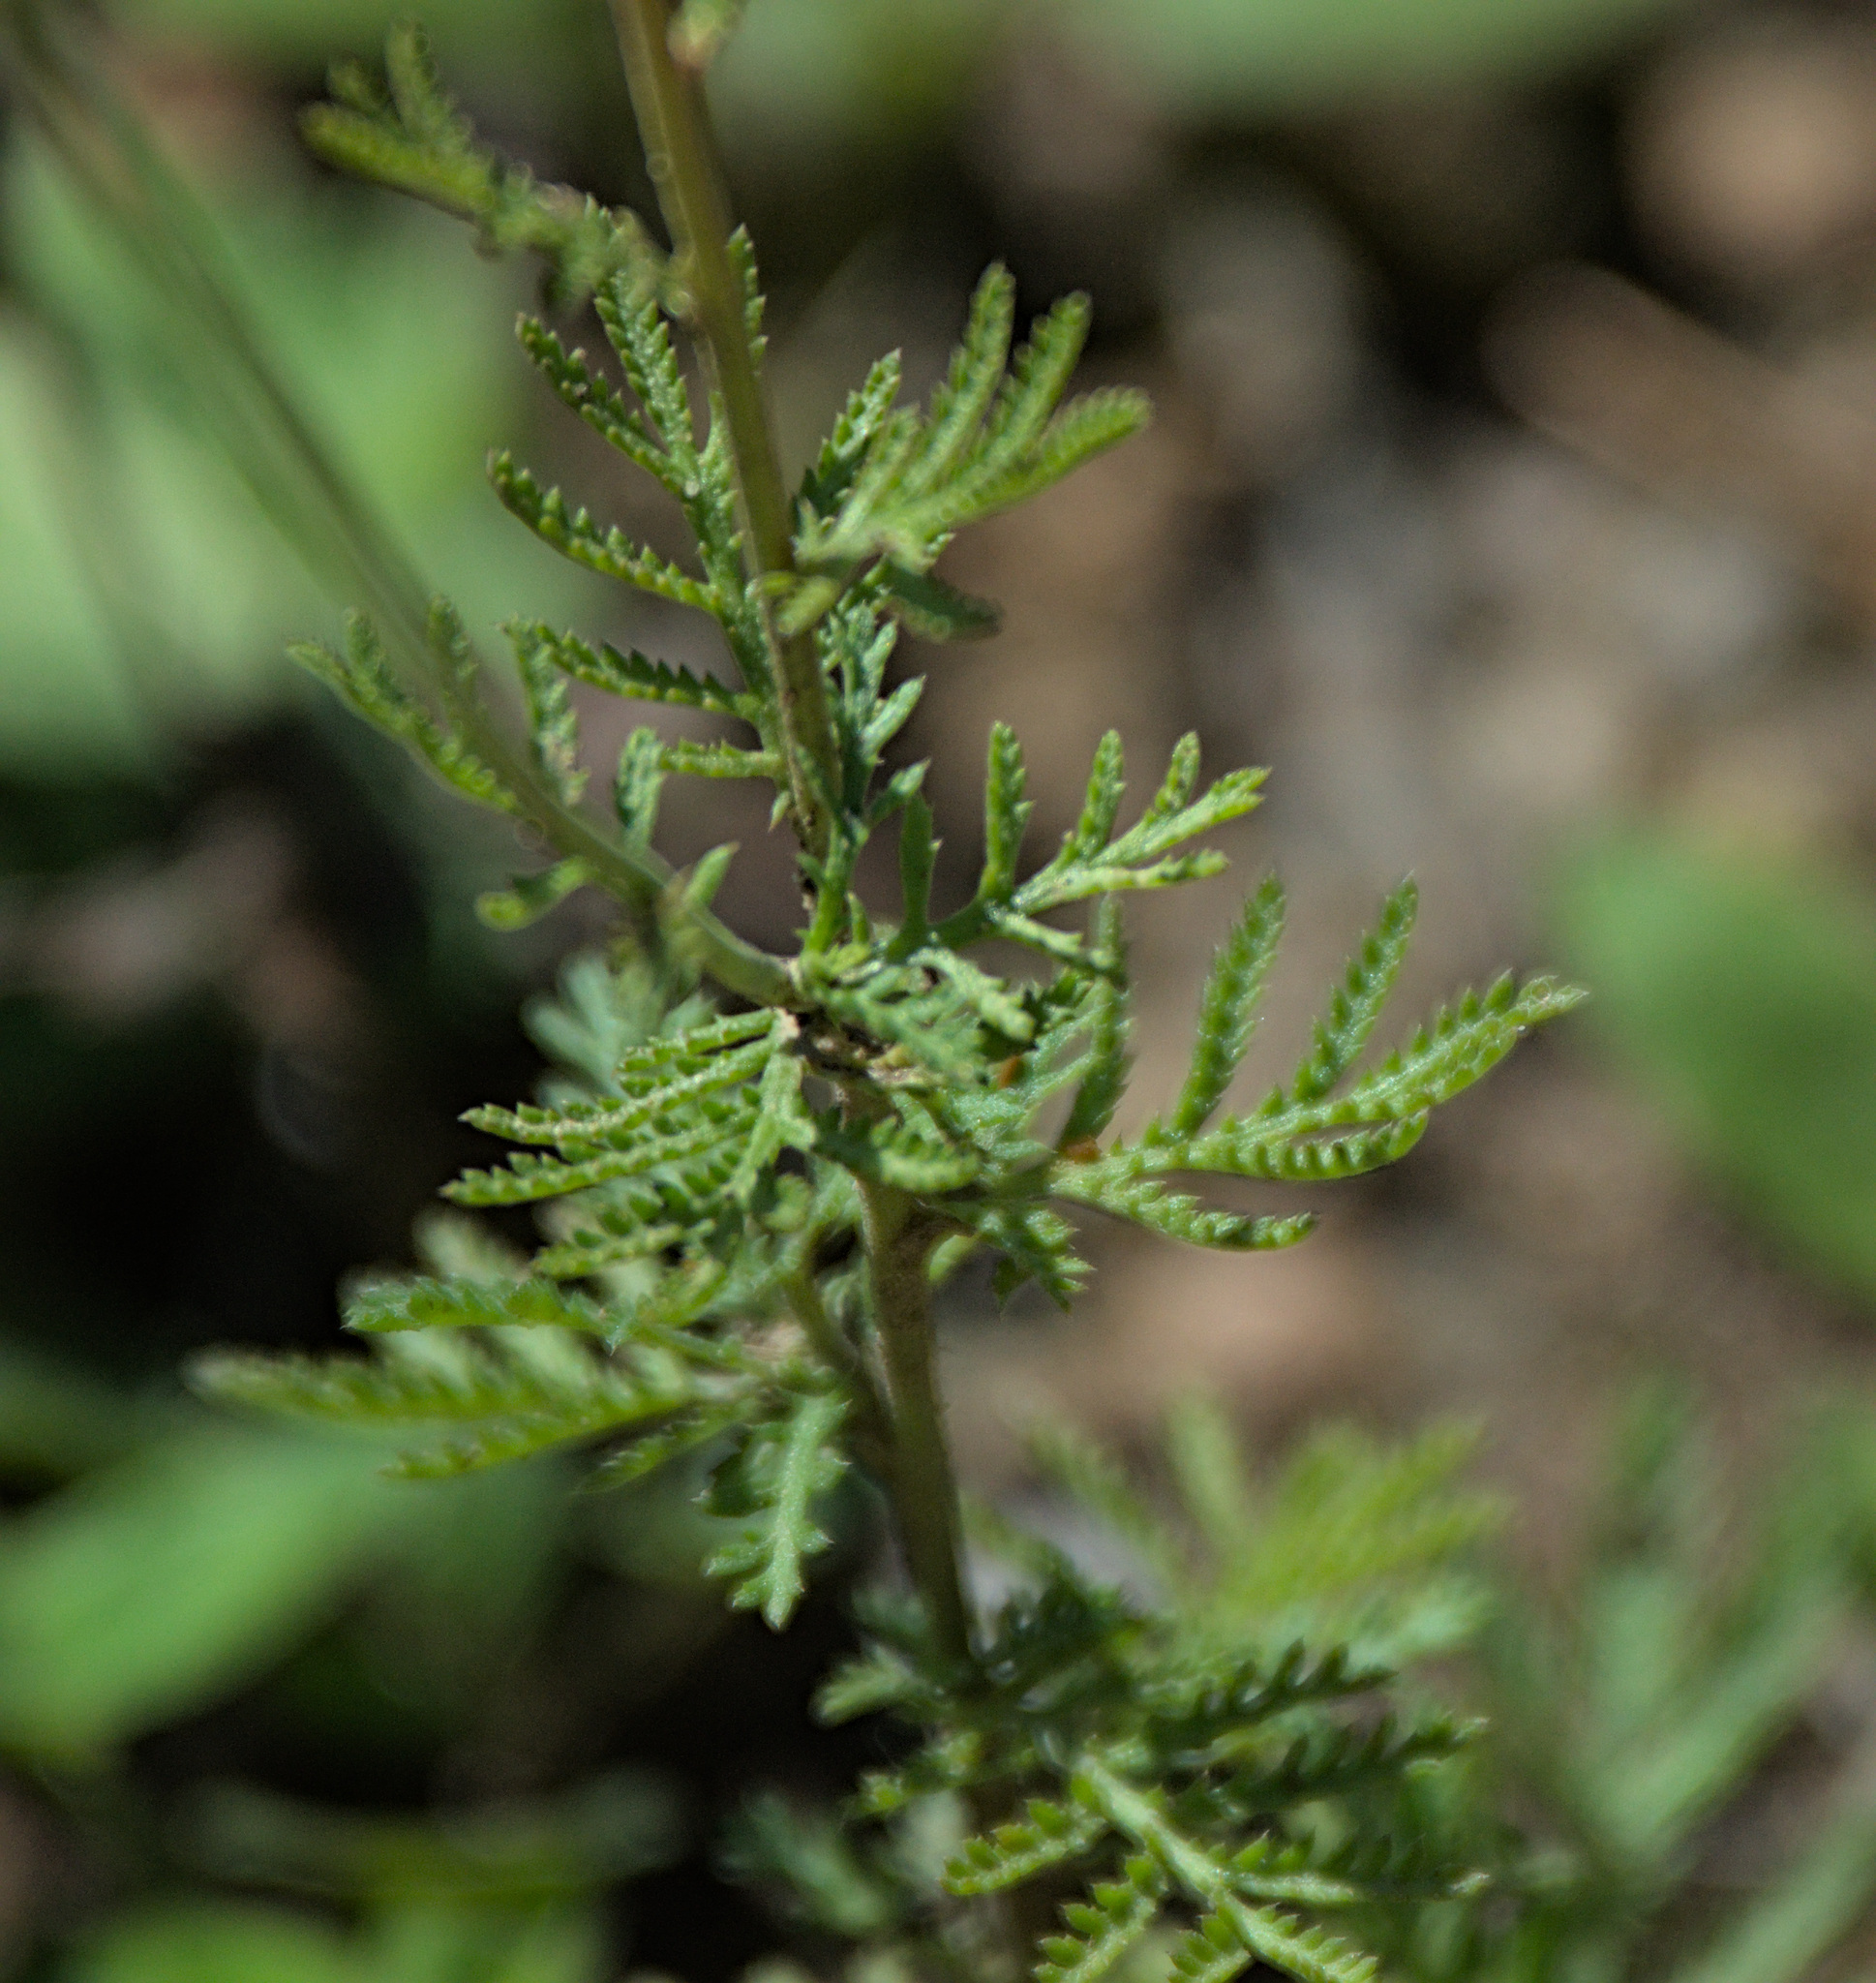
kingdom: Plantae
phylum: Tracheophyta
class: Magnoliopsida
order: Asterales
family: Asteraceae
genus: Cota
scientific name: Cota tinctoria
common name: Golden chamomile
